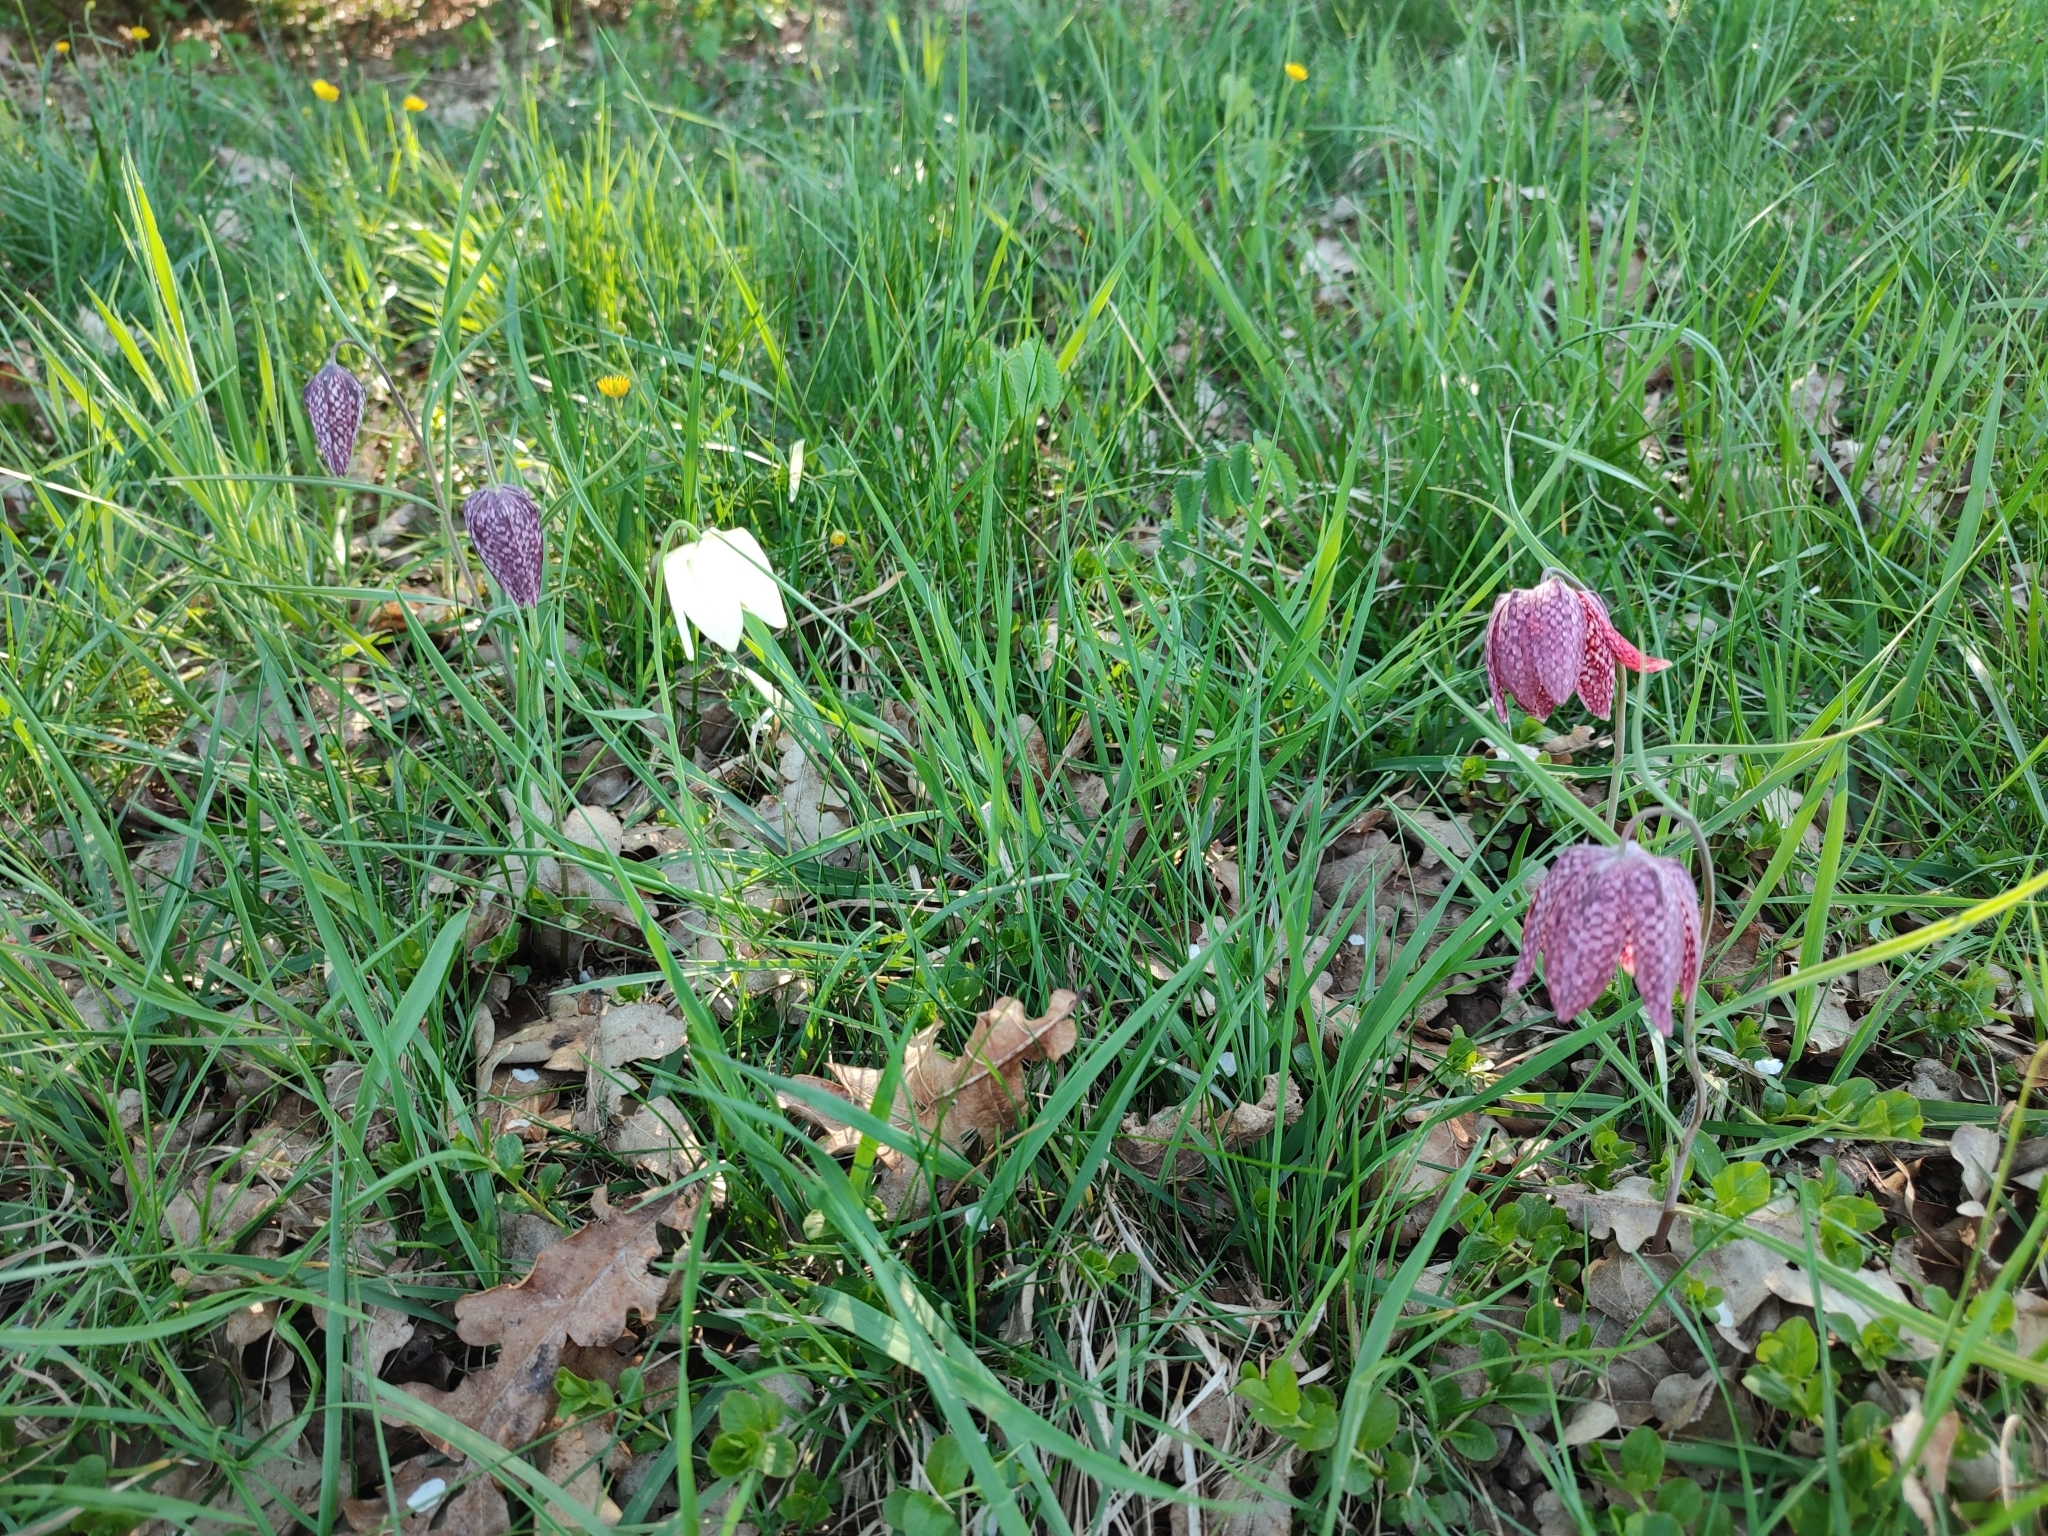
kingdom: Plantae
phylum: Tracheophyta
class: Liliopsida
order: Liliales
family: Liliaceae
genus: Fritillaria
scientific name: Fritillaria meleagris
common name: Fritillary
